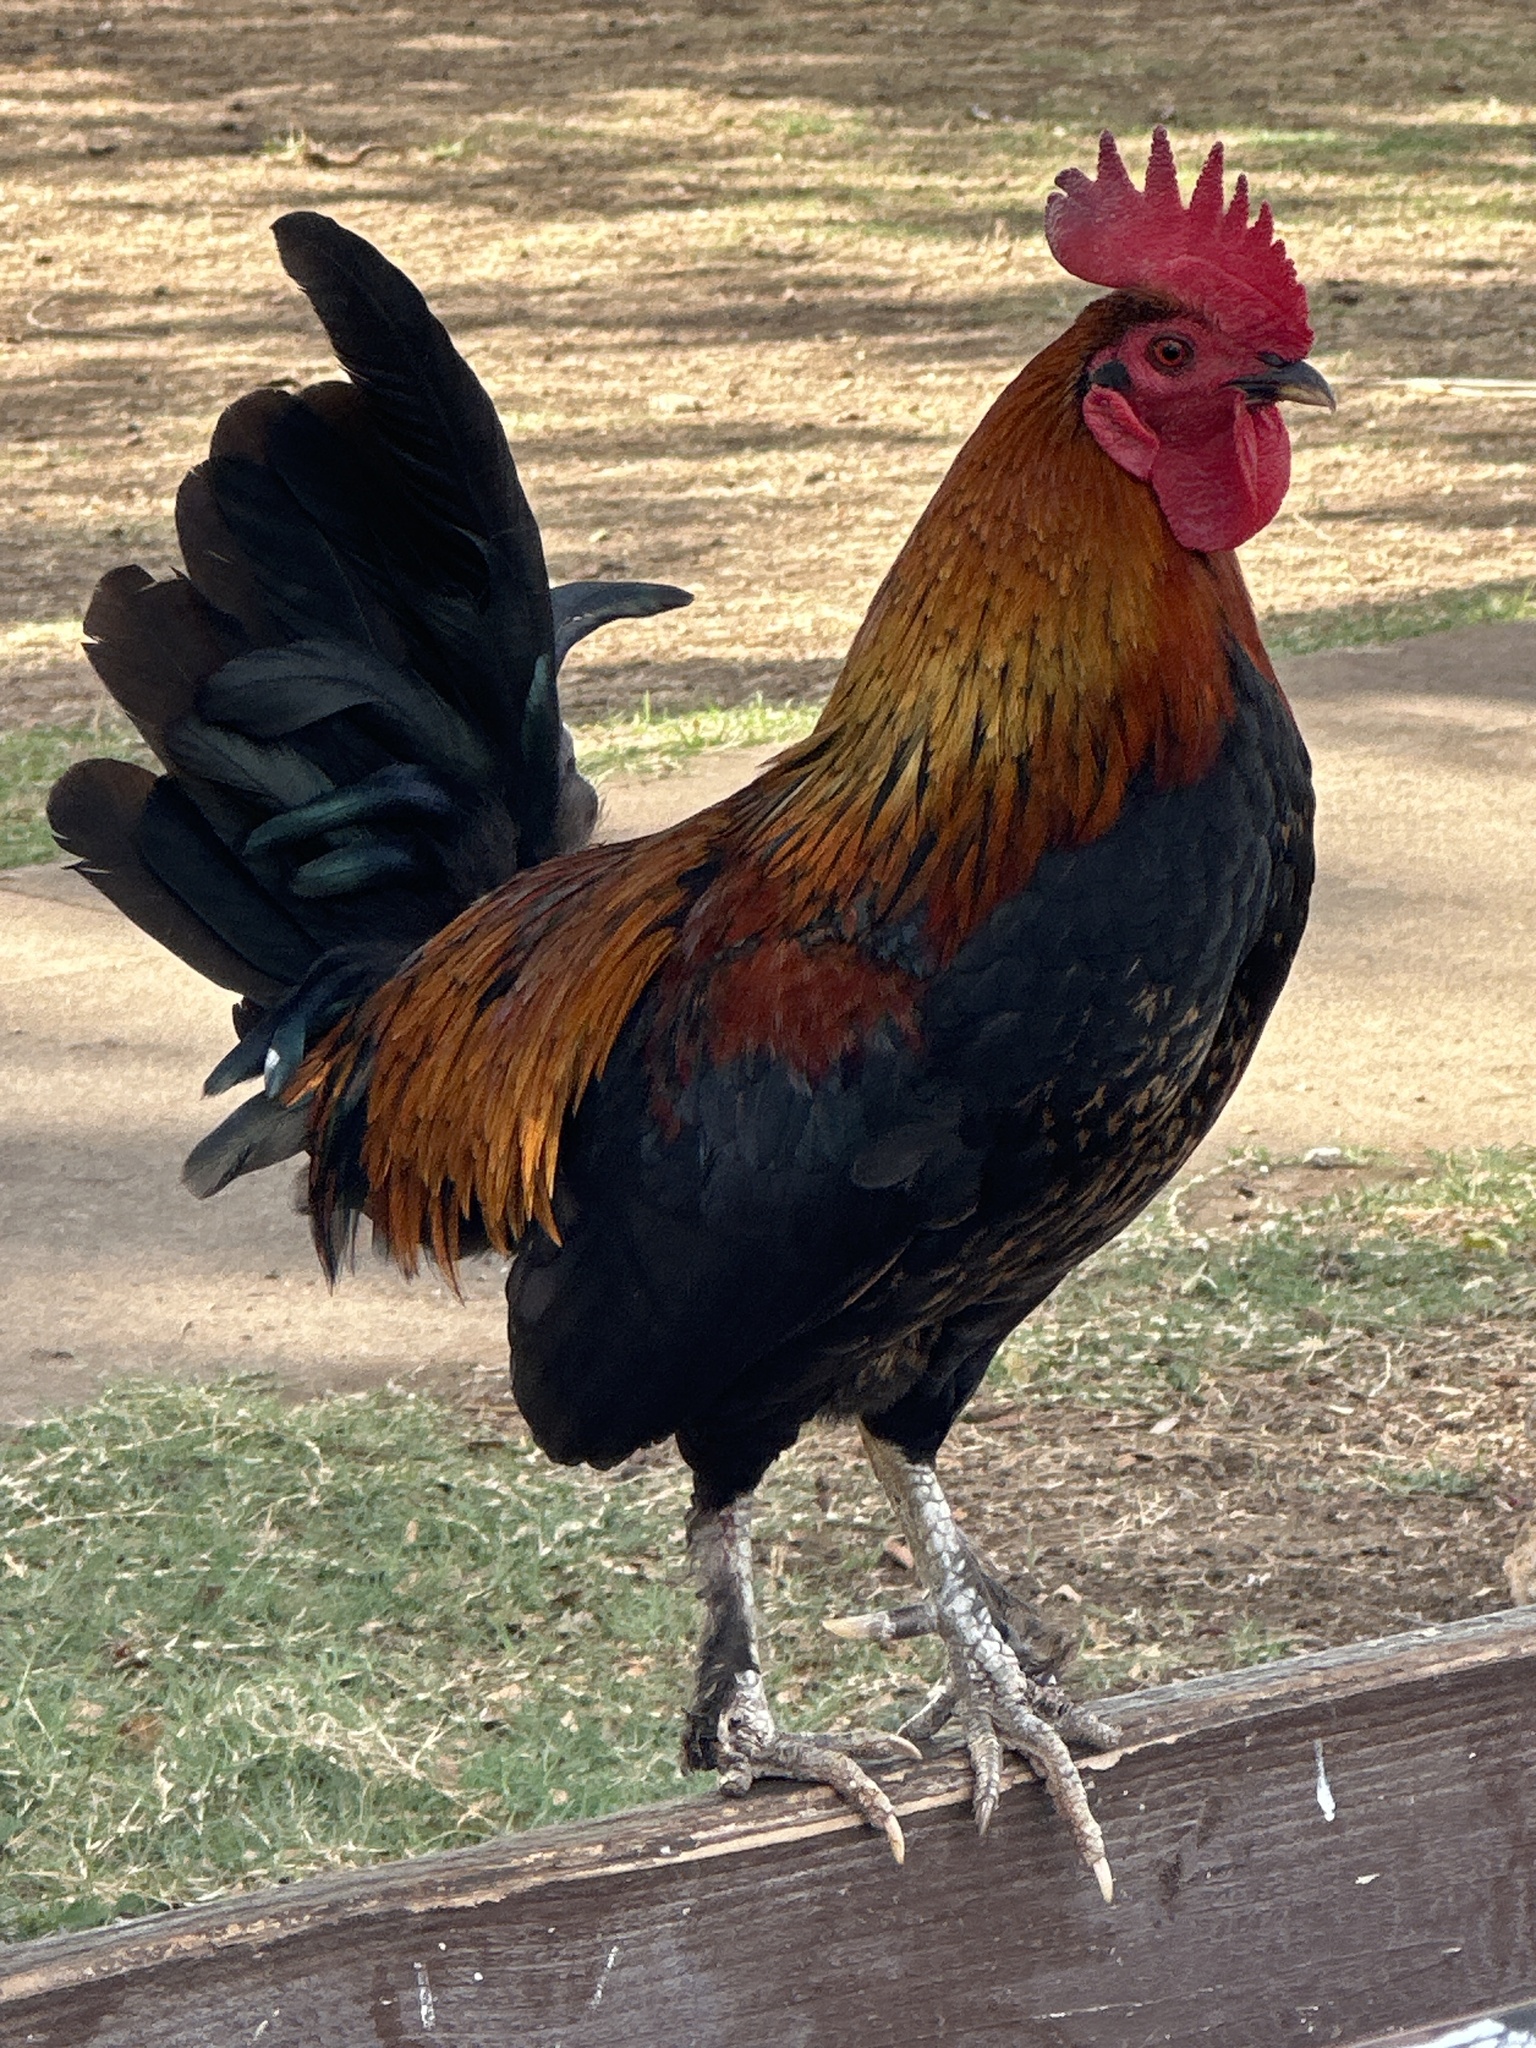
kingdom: Animalia
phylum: Chordata
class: Aves
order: Galliformes
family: Phasianidae
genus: Gallus
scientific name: Gallus gallus
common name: Red junglefowl
